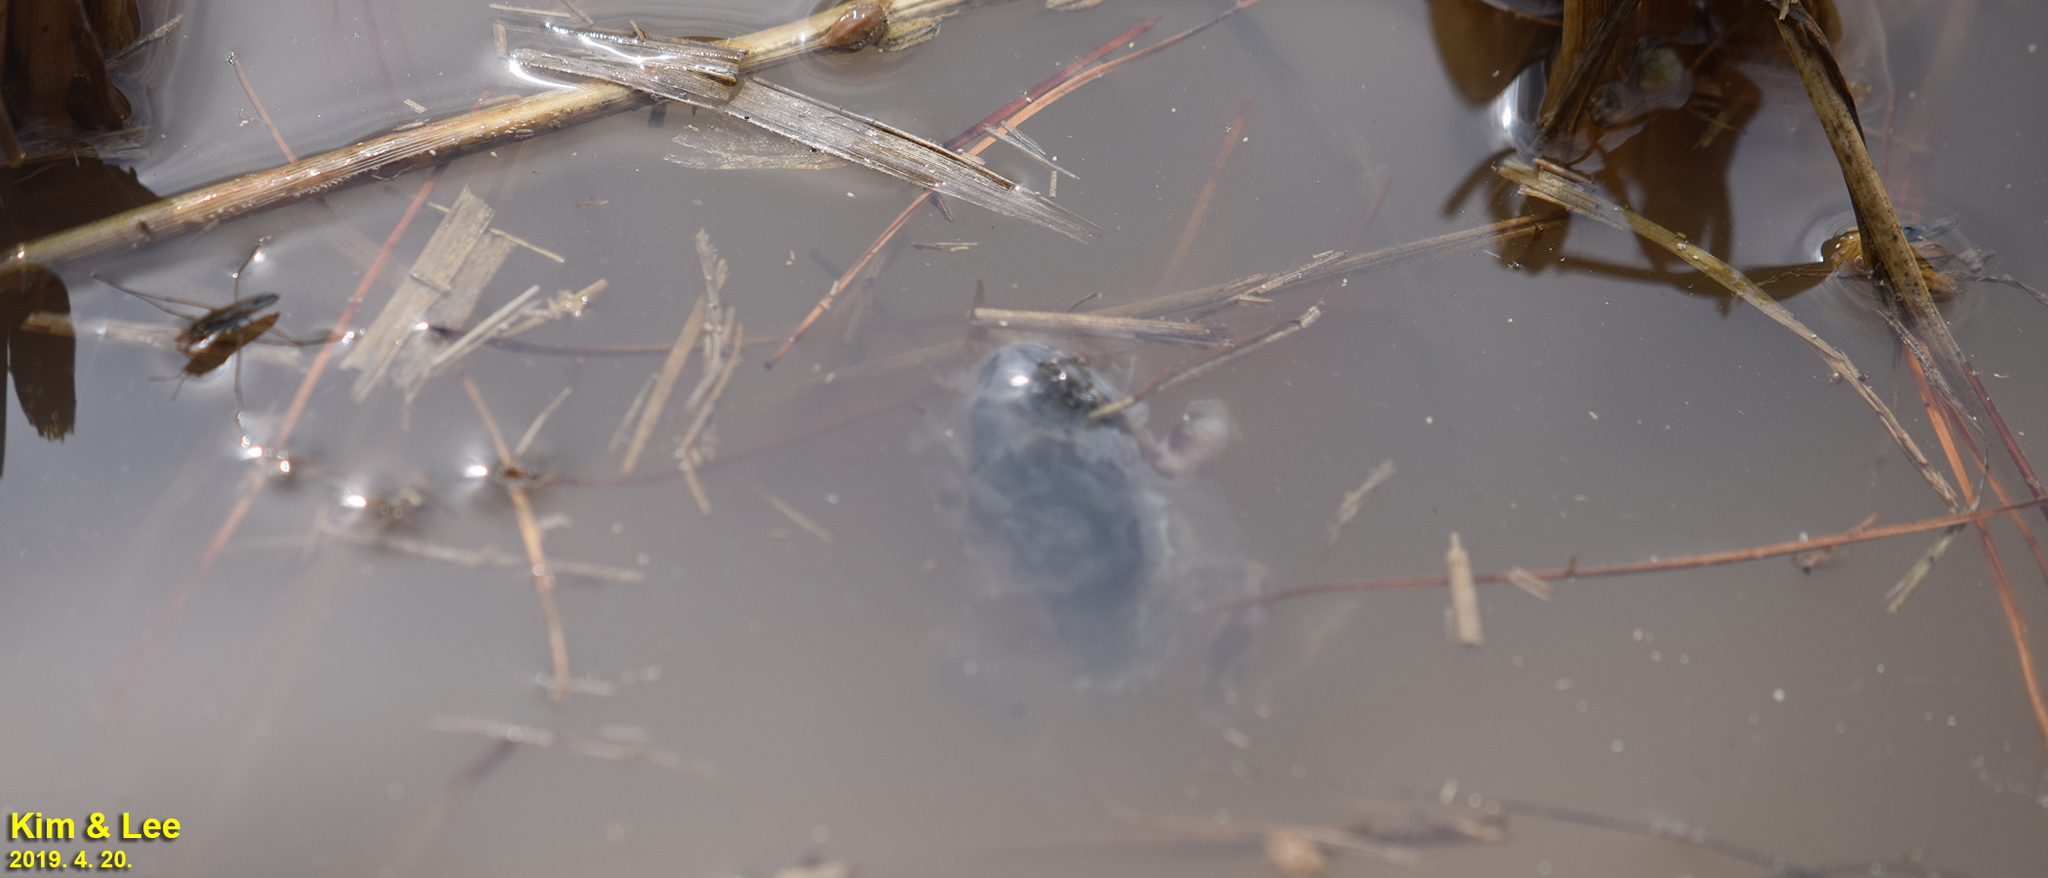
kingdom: Animalia
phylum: Chordata
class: Amphibia
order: Anura
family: Hylidae
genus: Dryophytes
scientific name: Dryophytes japonicus
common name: Japanese treefrog
